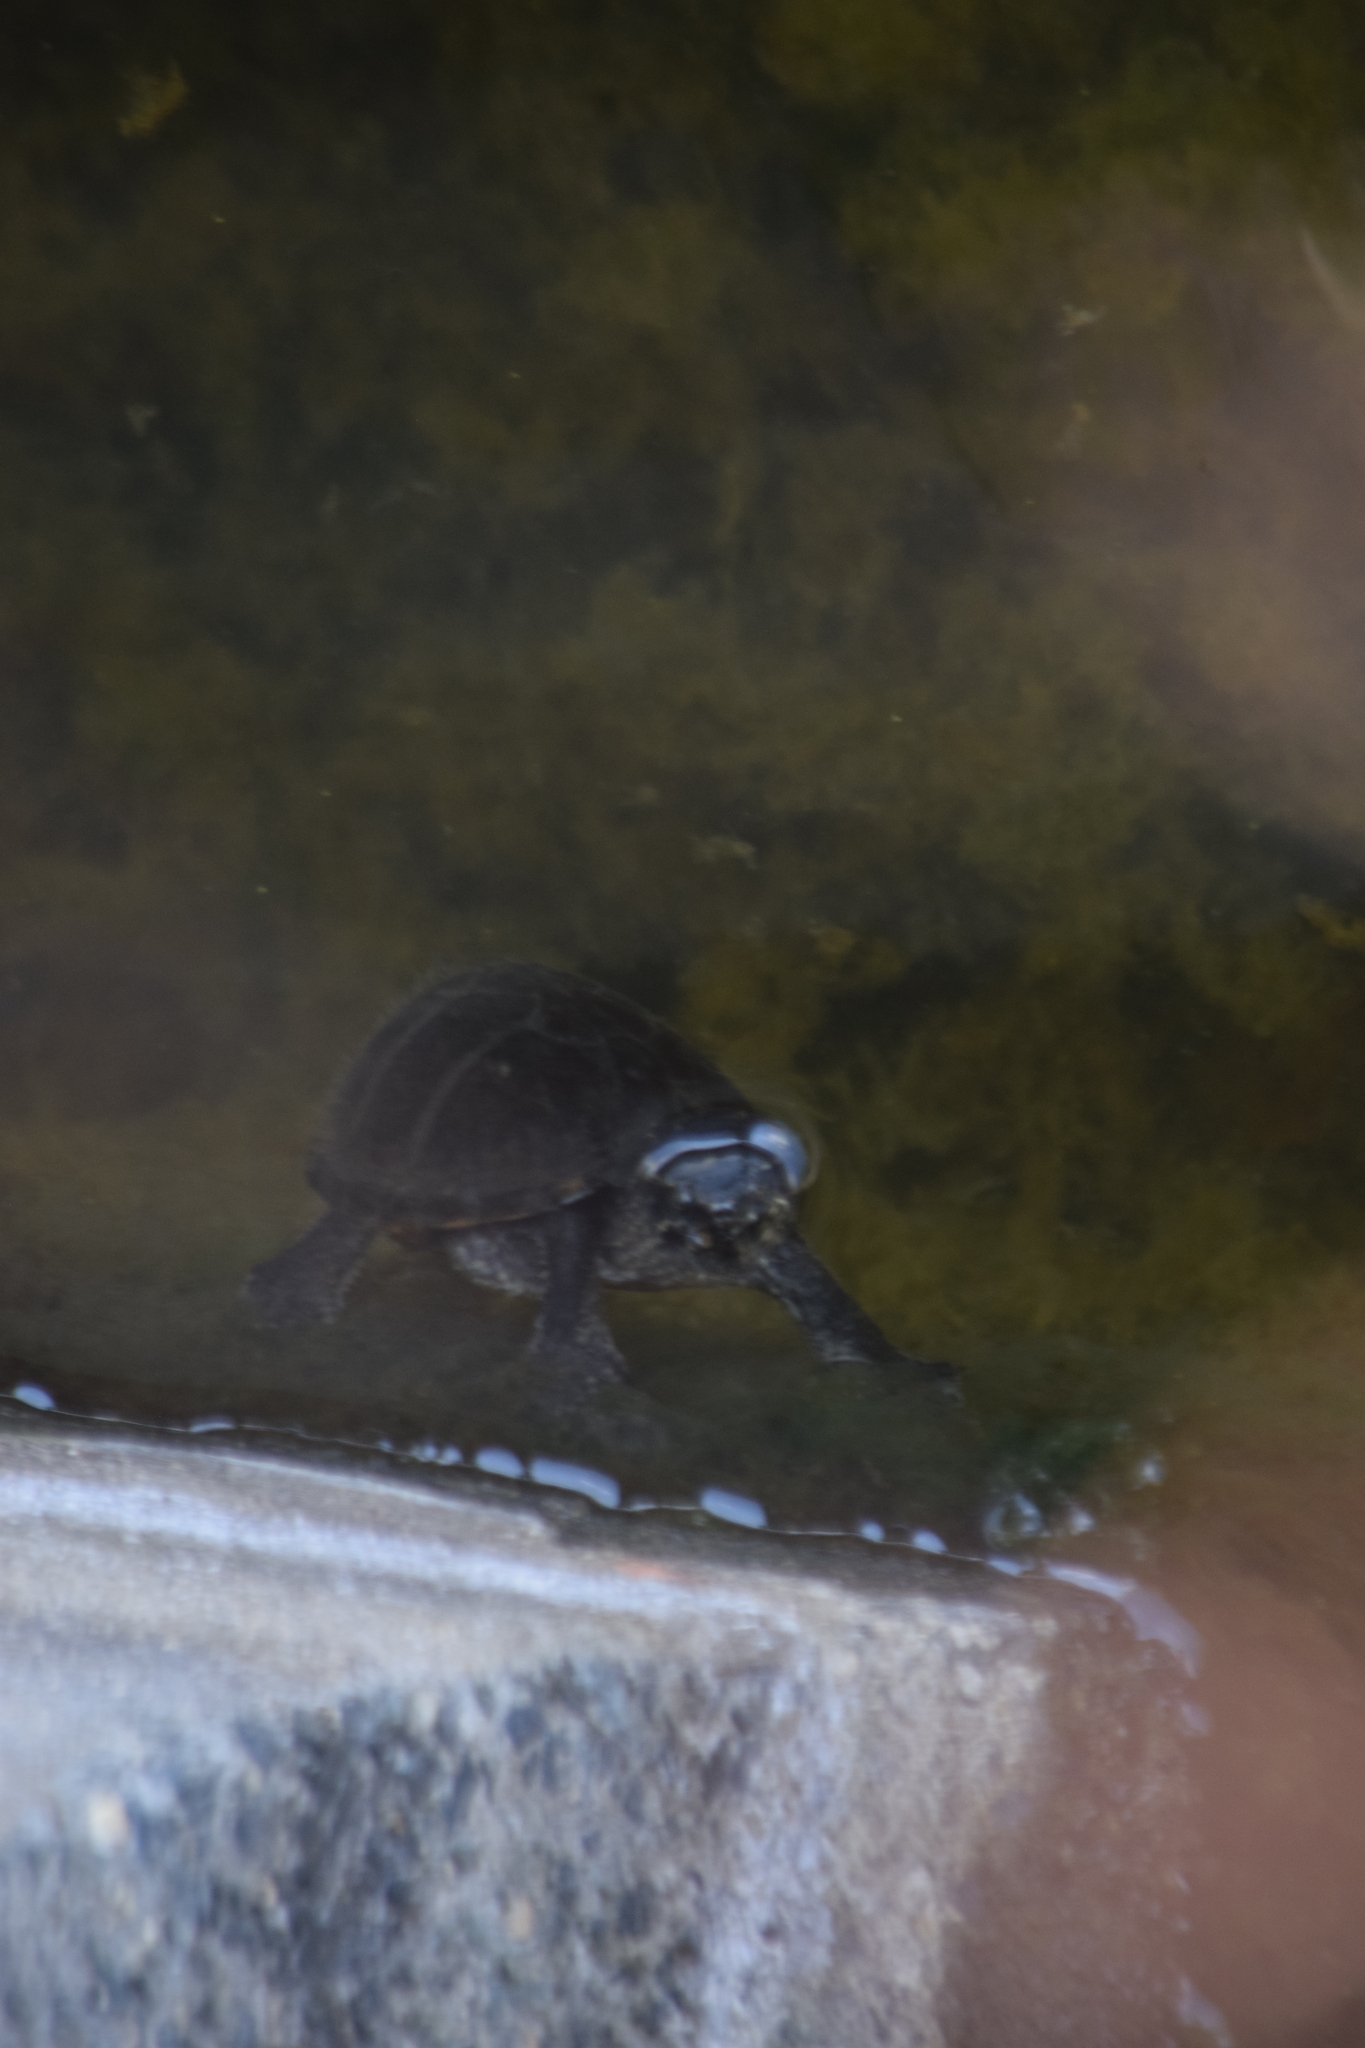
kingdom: Animalia
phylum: Chordata
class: Testudines
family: Kinosternidae
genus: Sternotherus
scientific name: Sternotherus odoratus
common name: Common musk turtle
